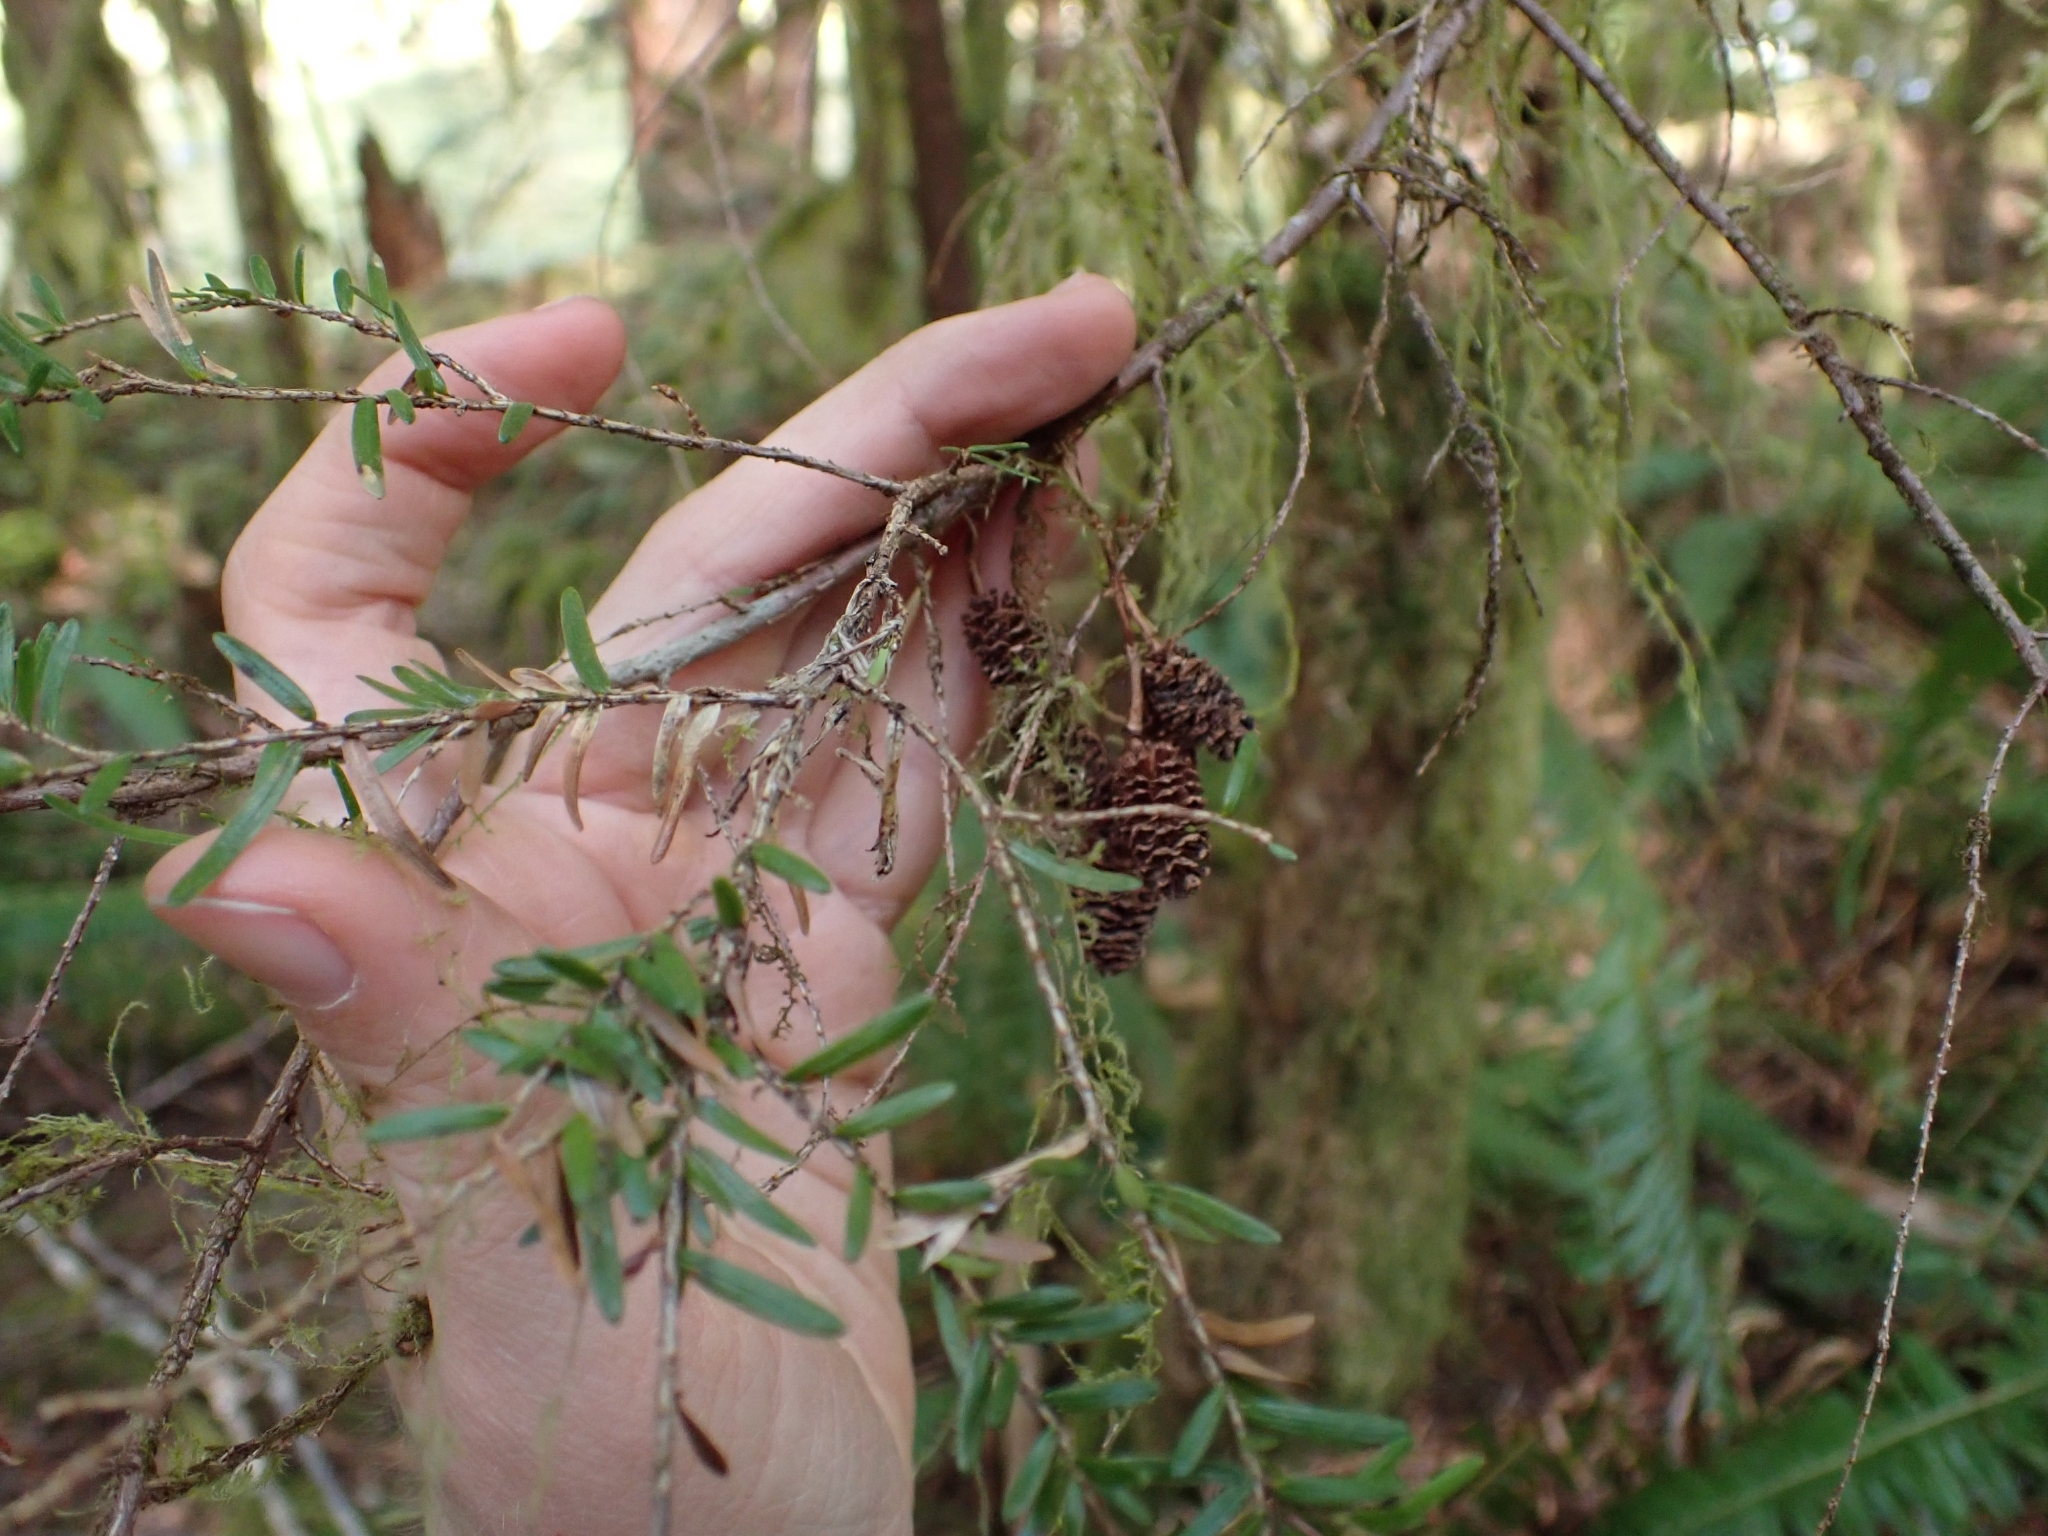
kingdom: Plantae
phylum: Tracheophyta
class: Pinopsida
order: Pinales
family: Pinaceae
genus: Tsuga
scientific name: Tsuga heterophylla
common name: Western hemlock
